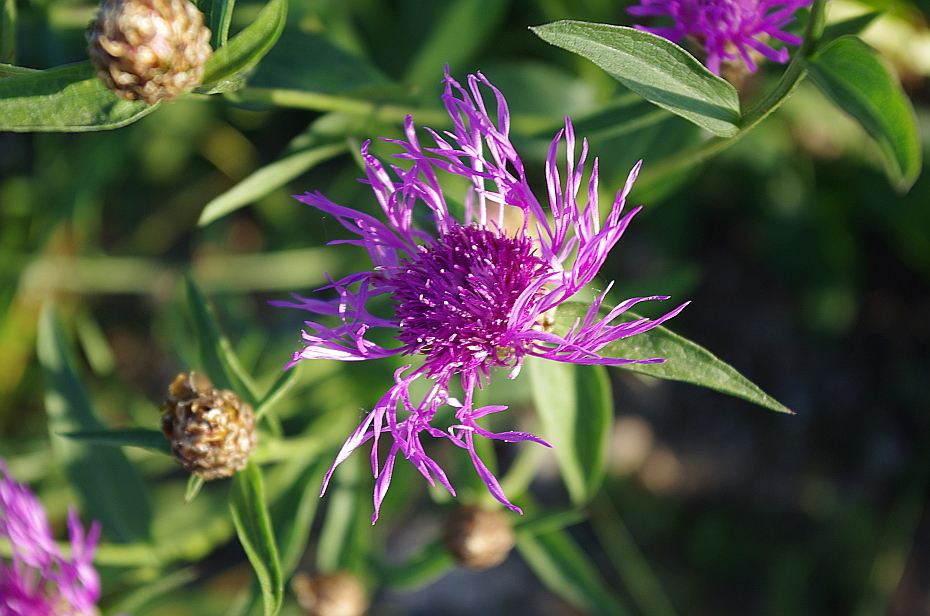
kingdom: Plantae
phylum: Tracheophyta
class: Magnoliopsida
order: Asterales
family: Asteraceae
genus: Centaurea
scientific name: Centaurea jacea
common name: Brown knapweed
